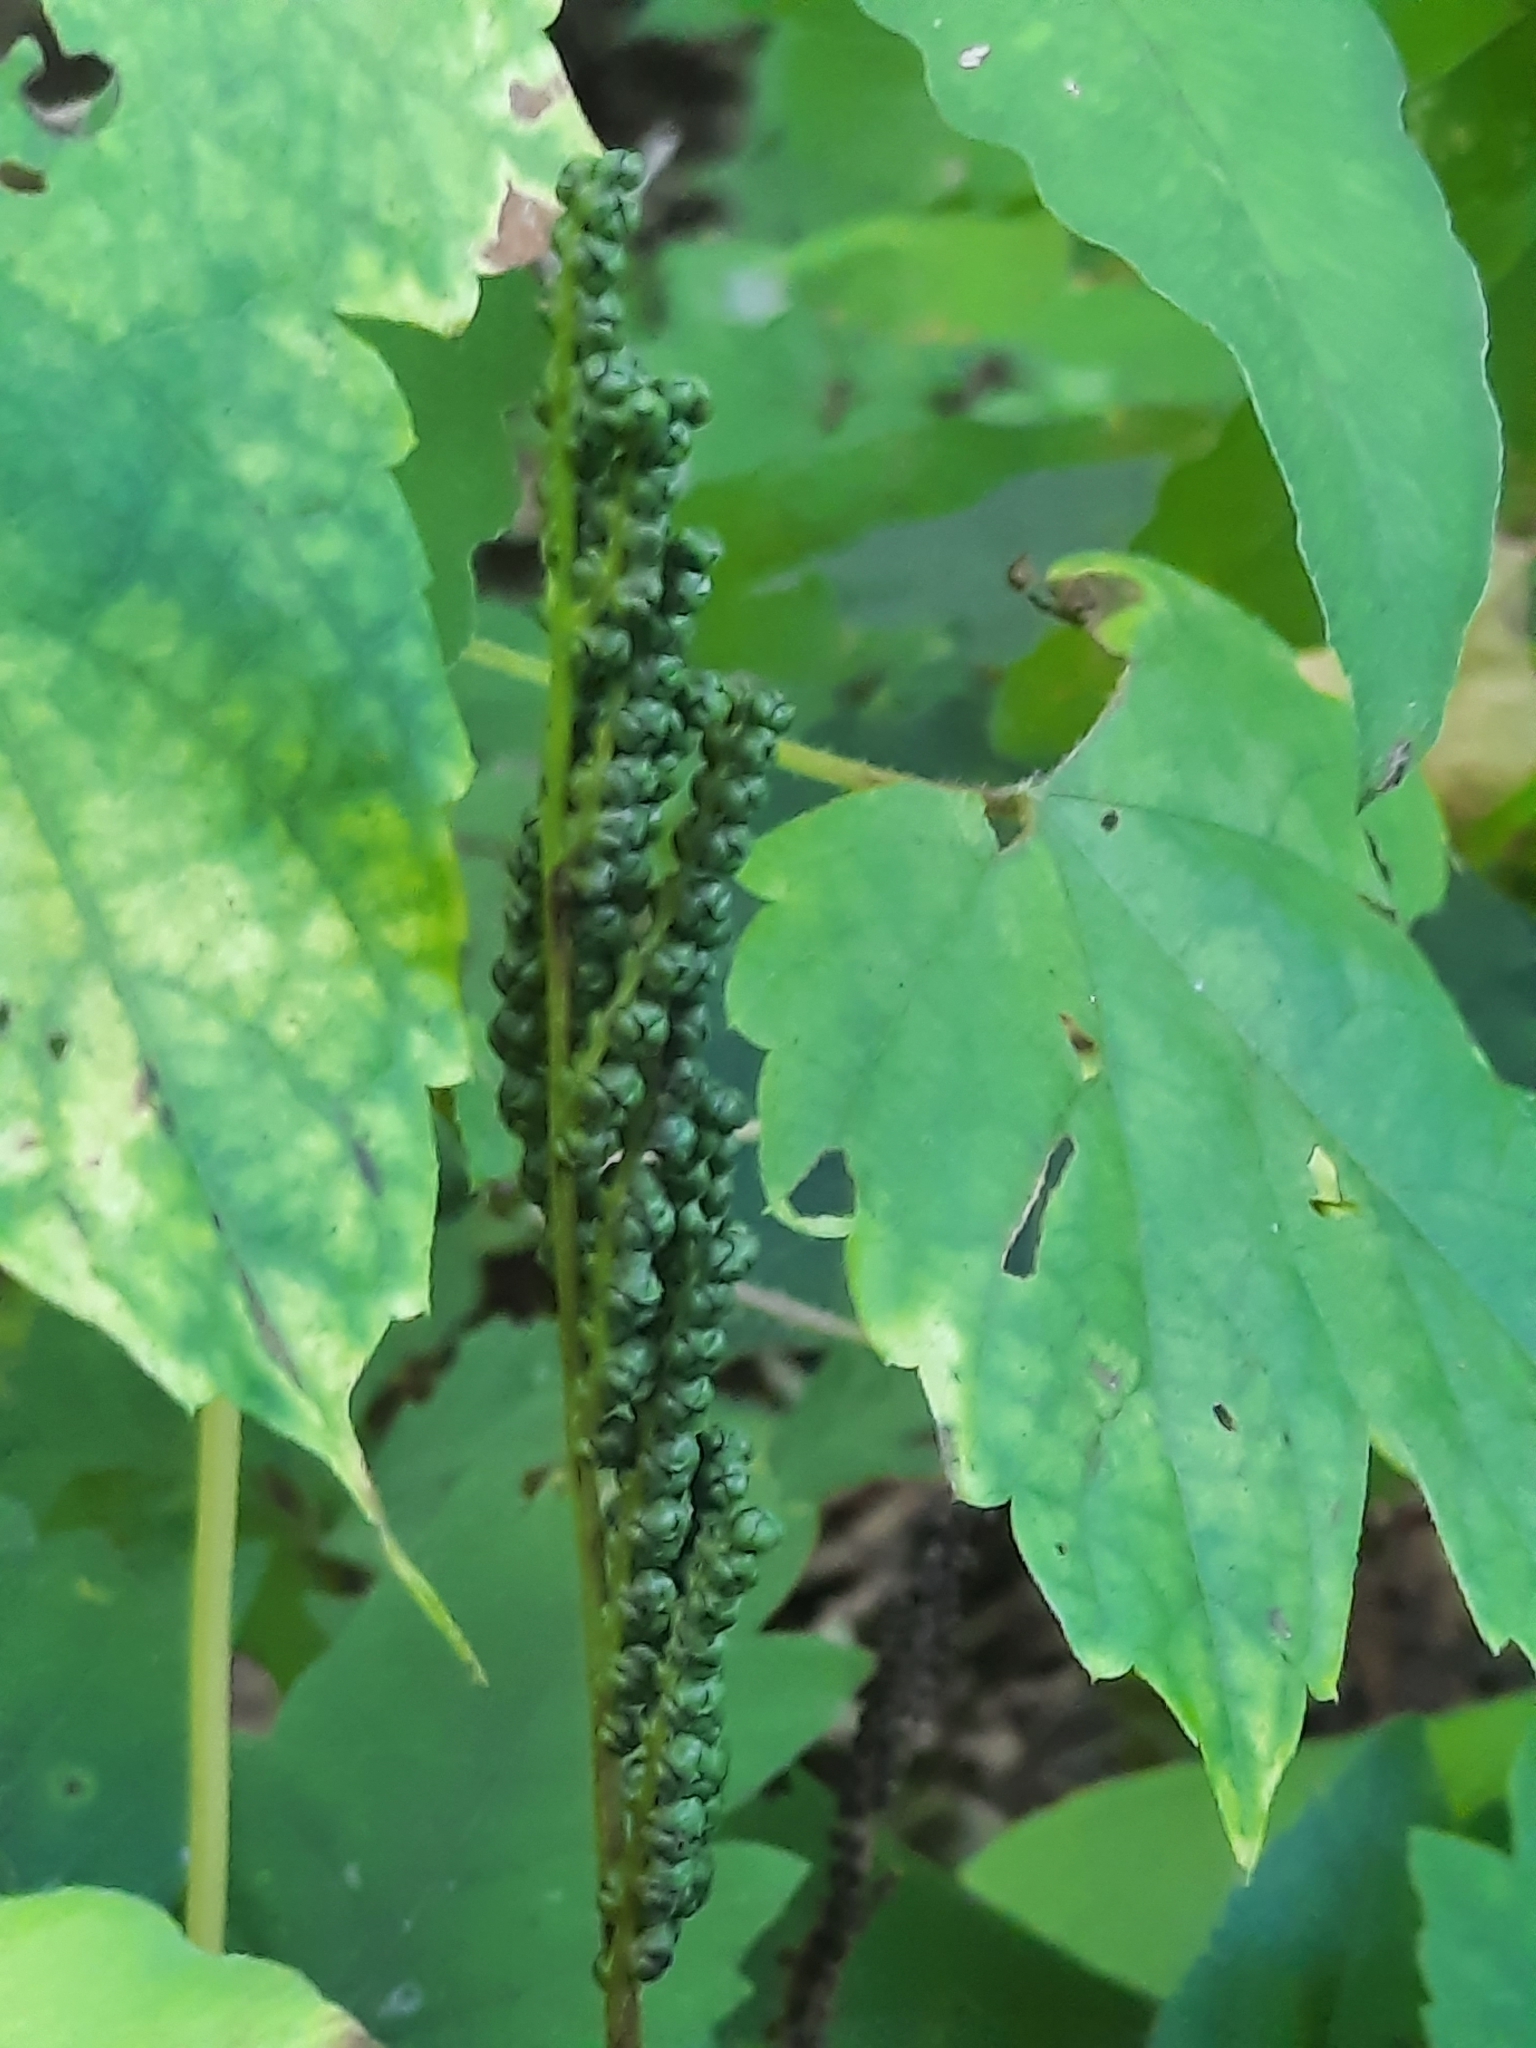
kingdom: Plantae
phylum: Tracheophyta
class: Polypodiopsida
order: Polypodiales
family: Onocleaceae
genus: Onoclea
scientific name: Onoclea sensibilis
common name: Sensitive fern
